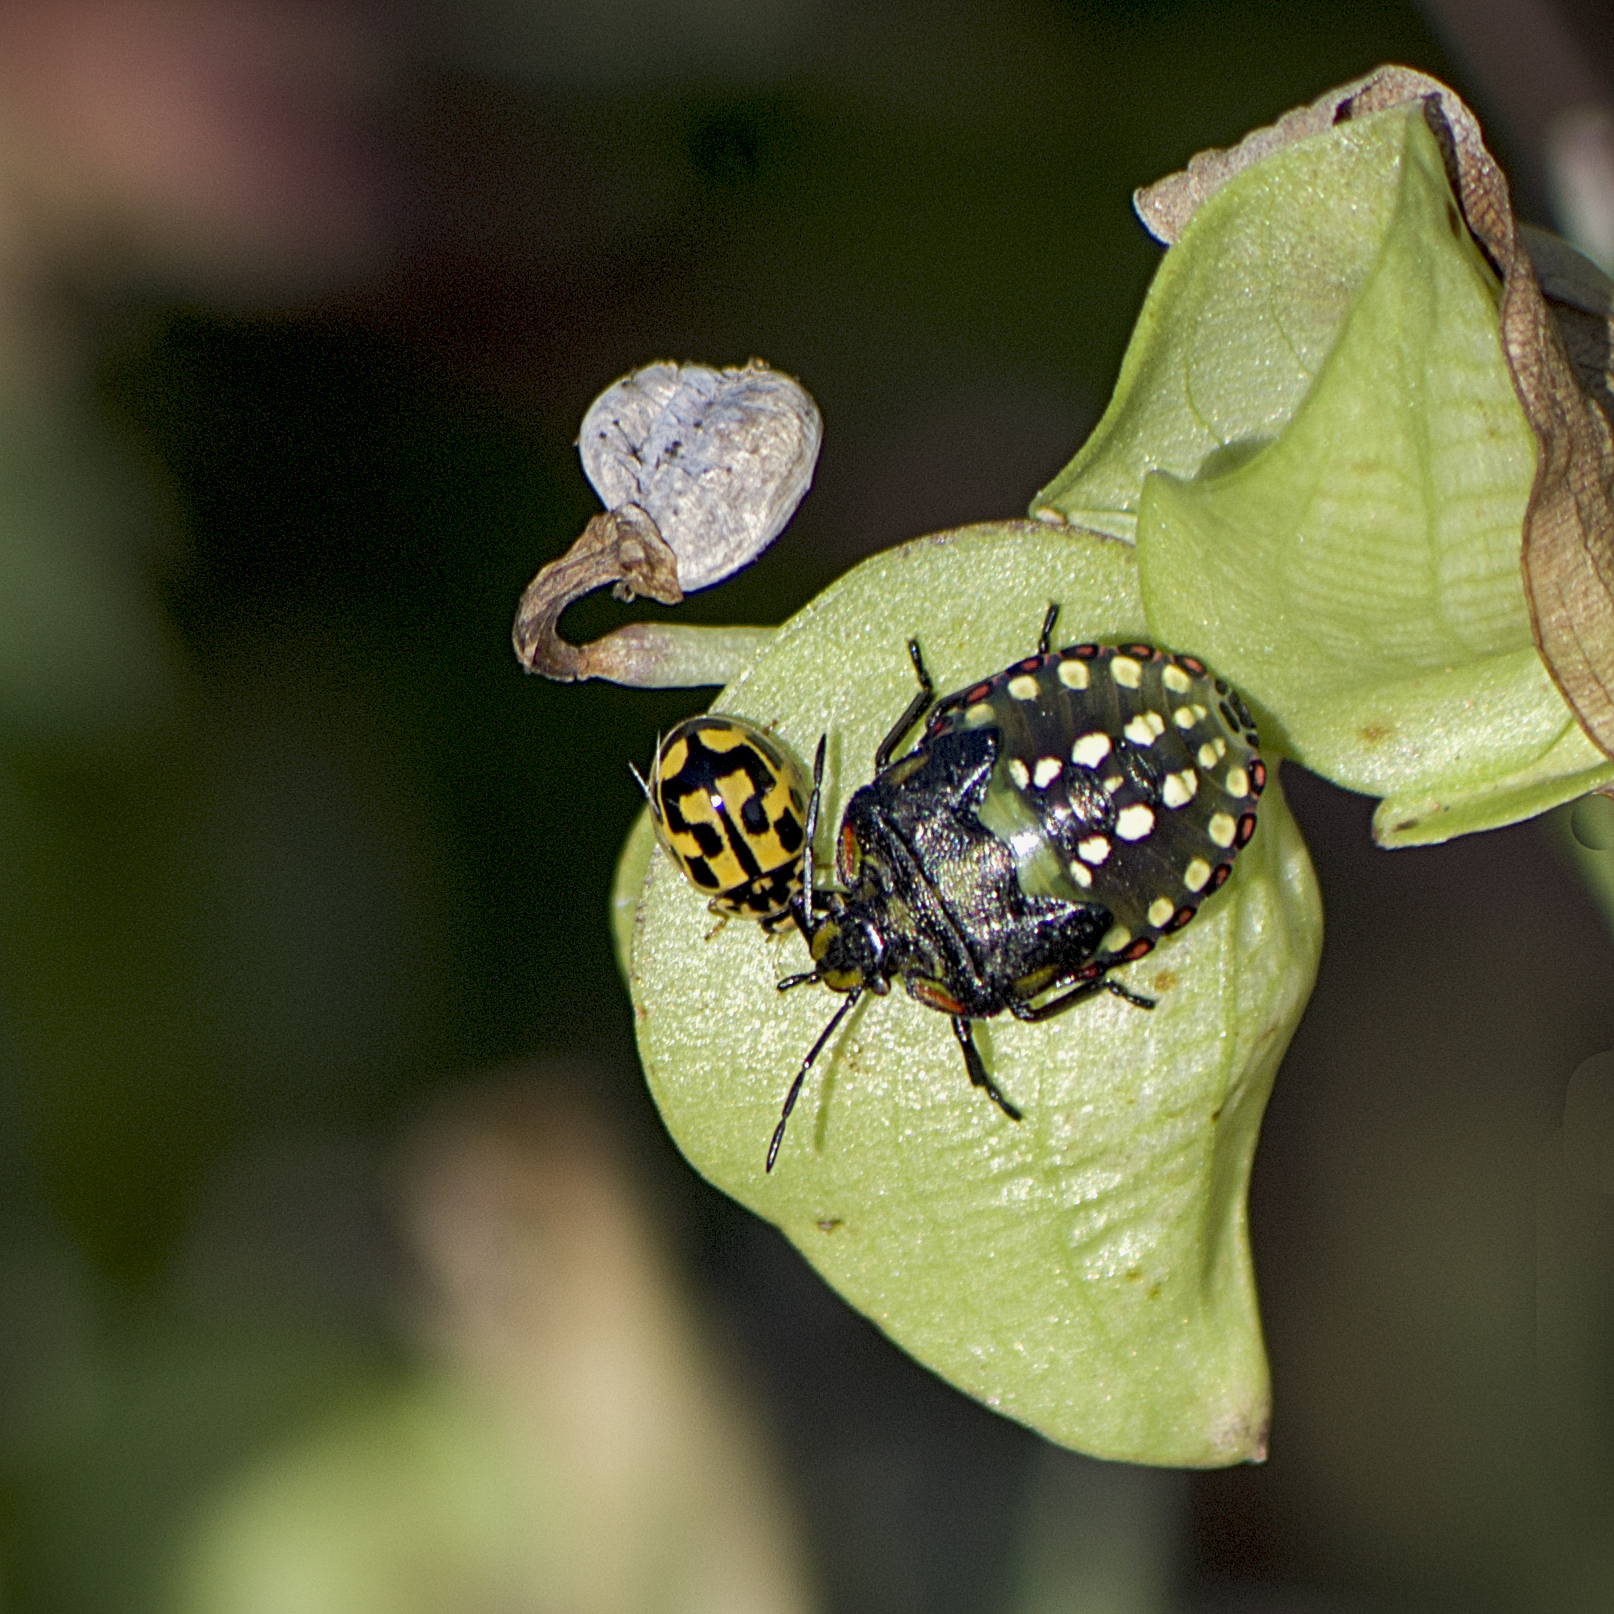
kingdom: Animalia
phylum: Arthropoda
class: Insecta
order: Hemiptera
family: Pentatomidae
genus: Nezara
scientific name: Nezara viridula
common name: Southern green stink bug
